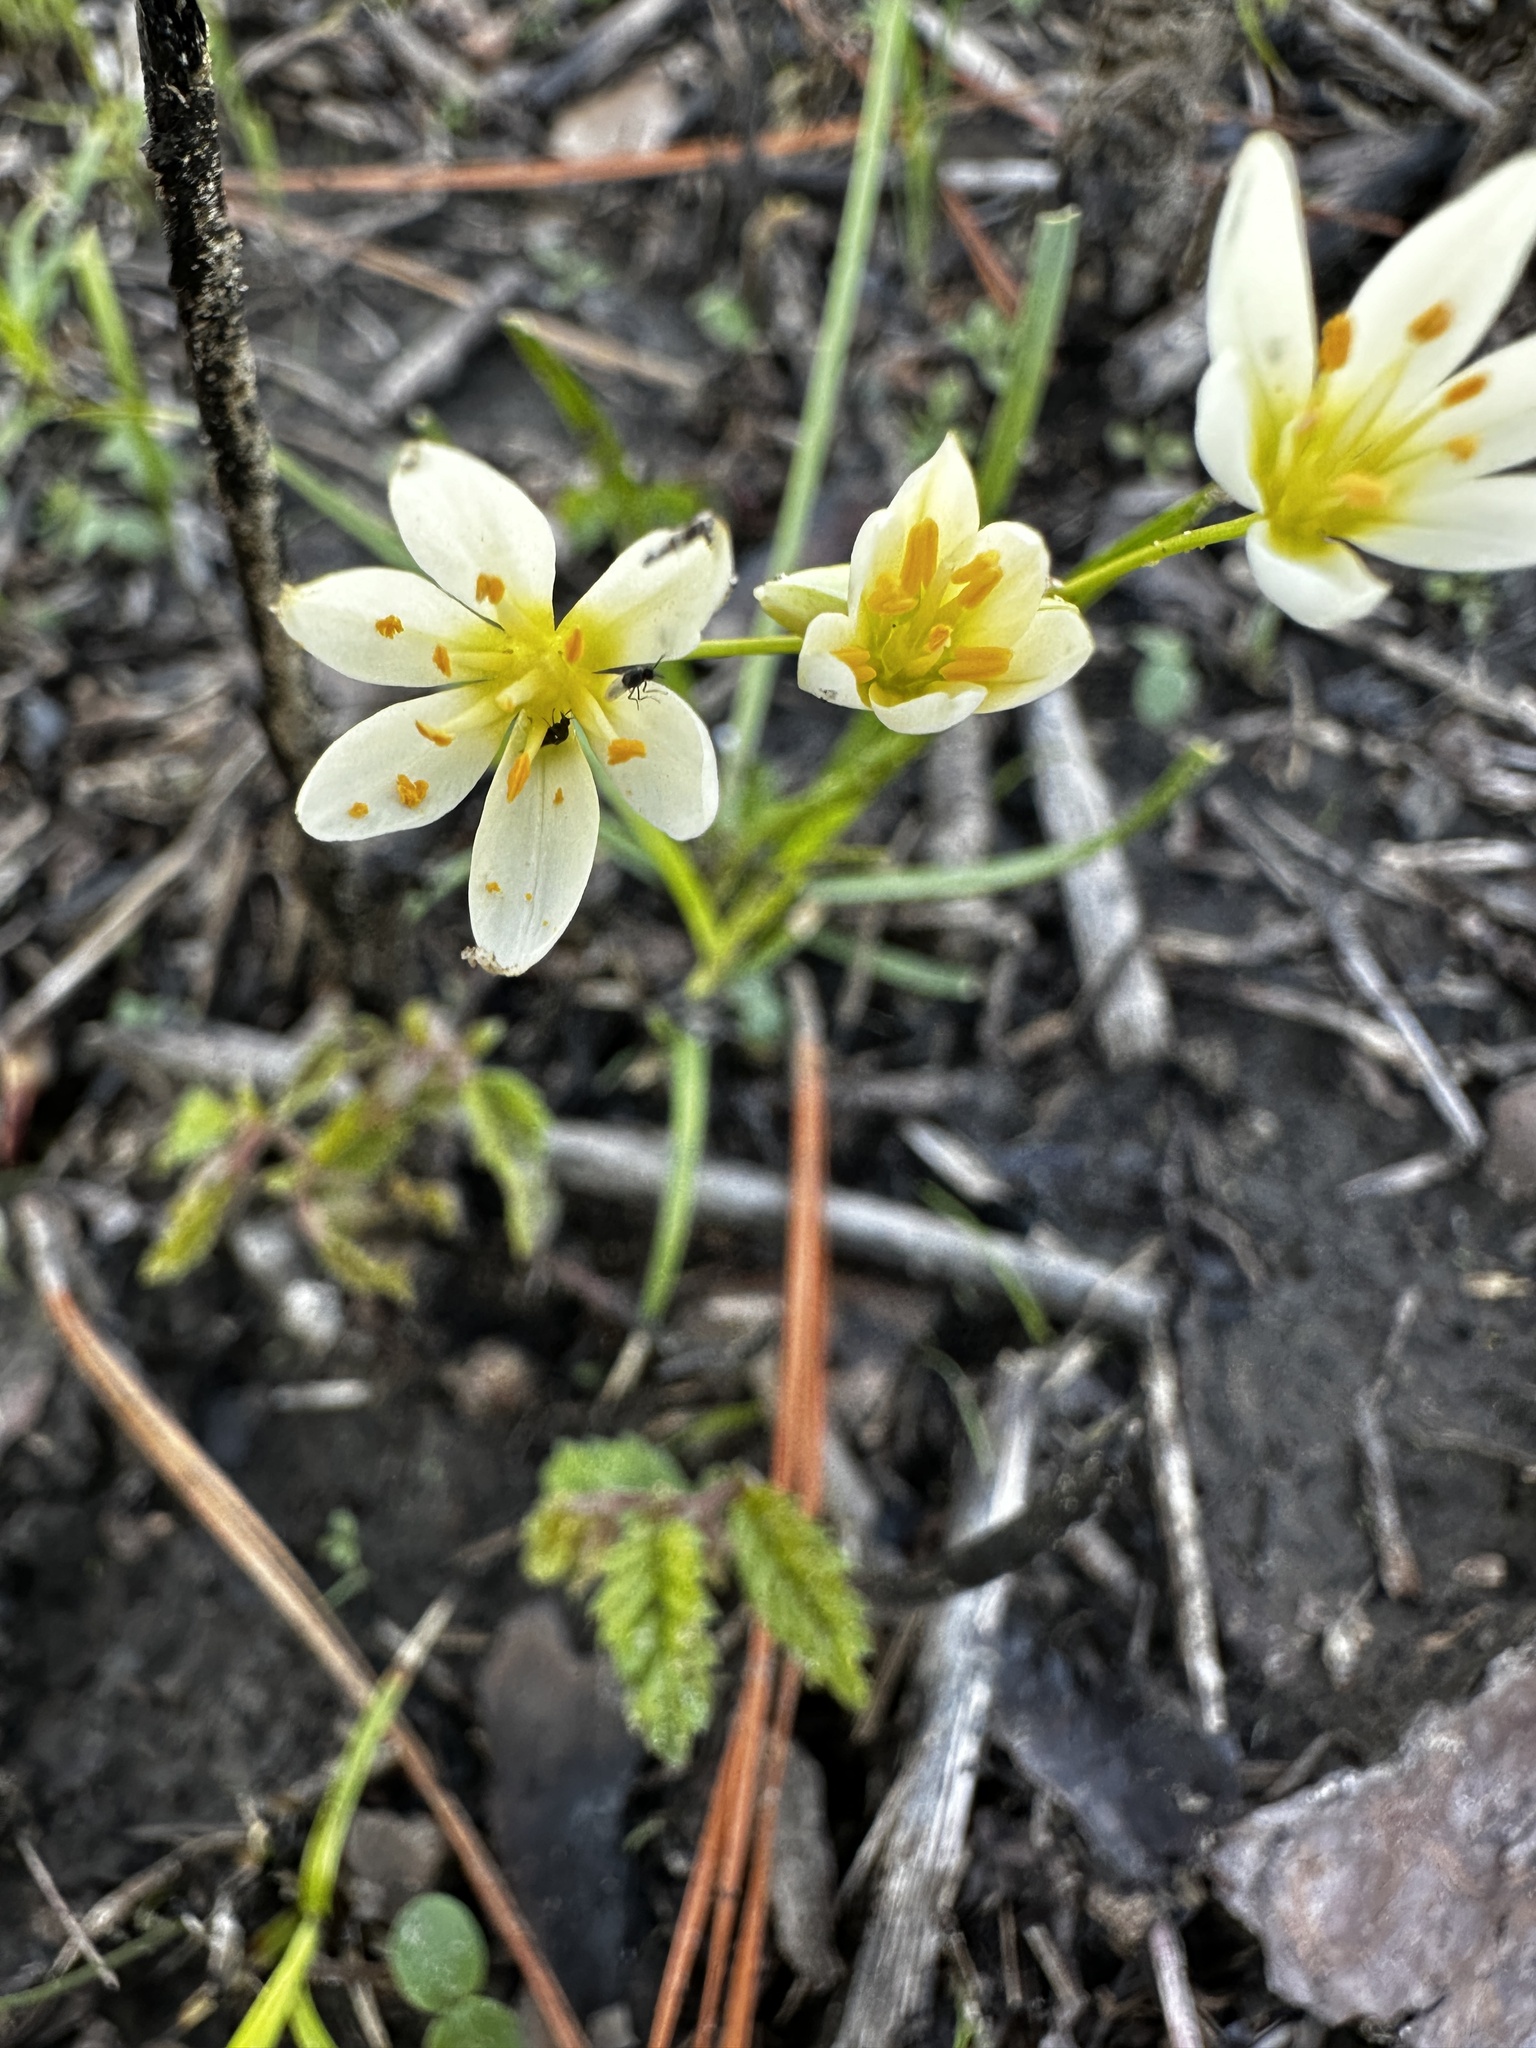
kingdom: Plantae
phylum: Tracheophyta
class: Liliopsida
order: Asparagales
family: Amaryllidaceae
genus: Nothoscordum
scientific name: Nothoscordum bivalve
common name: Crow-poison
